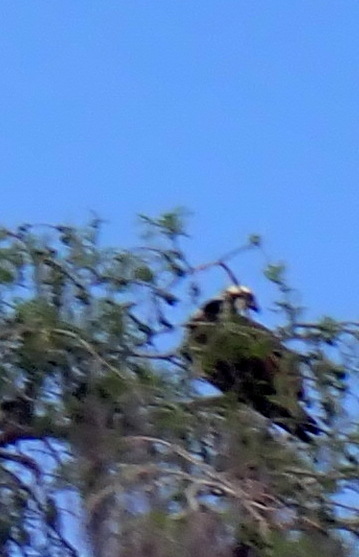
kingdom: Animalia
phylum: Chordata
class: Aves
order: Accipitriformes
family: Pandionidae
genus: Pandion
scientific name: Pandion haliaetus
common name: Osprey
